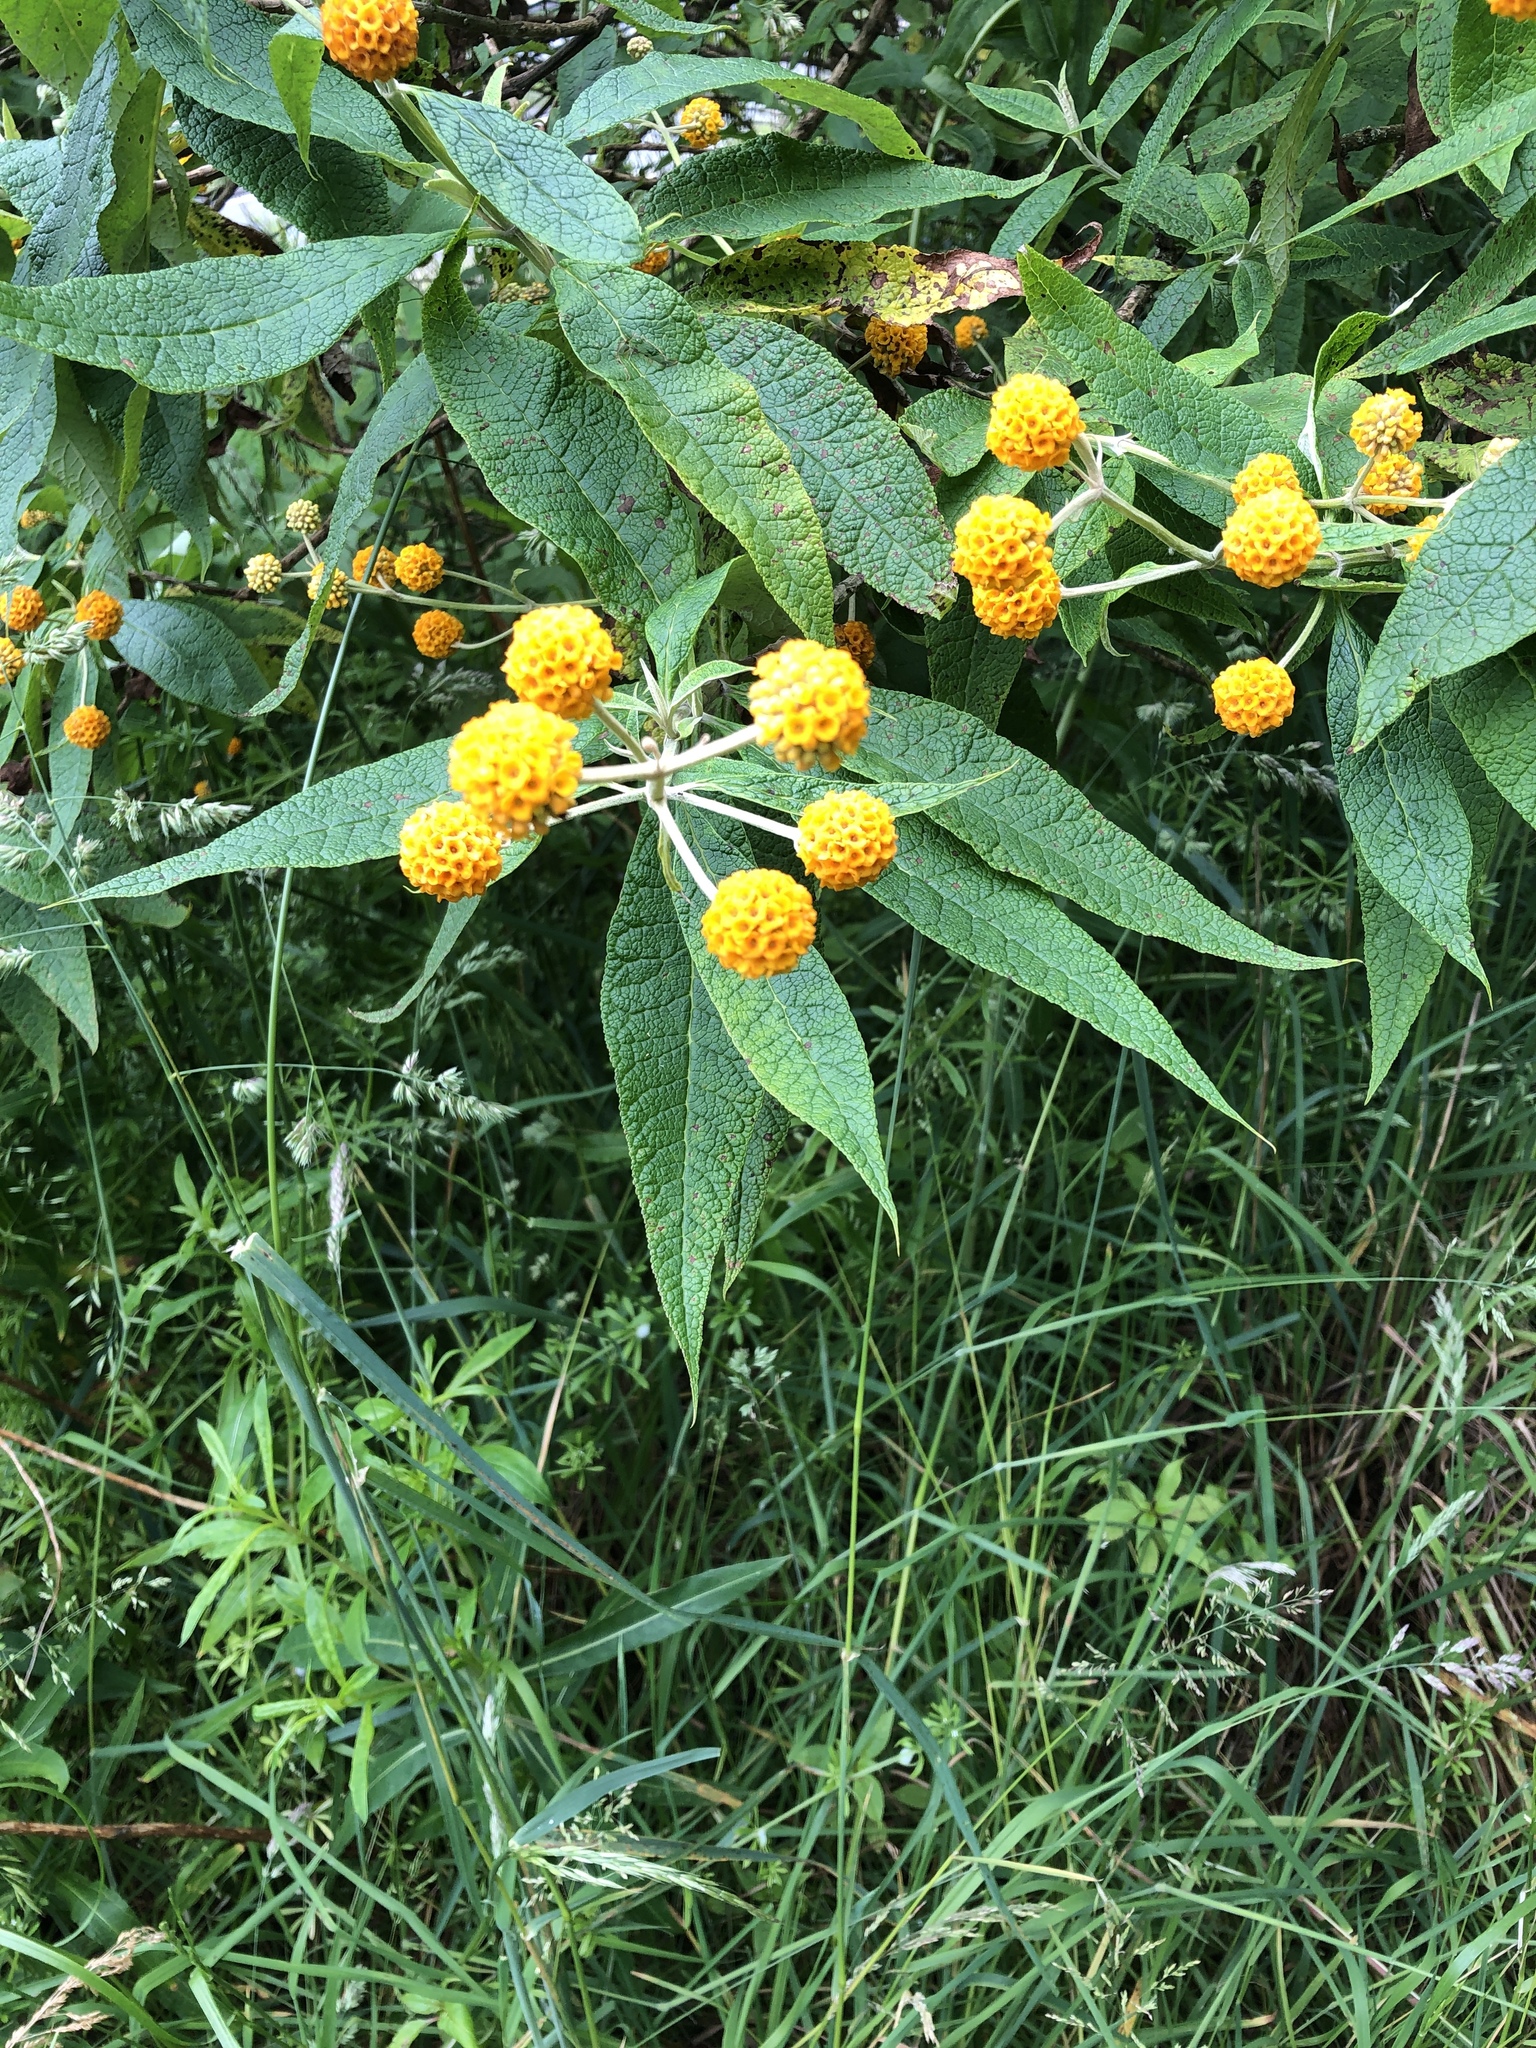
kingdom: Plantae
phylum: Tracheophyta
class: Magnoliopsida
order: Lamiales
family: Scrophulariaceae
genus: Buddleja
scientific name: Buddleja globosa
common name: Orange-ball-tree
